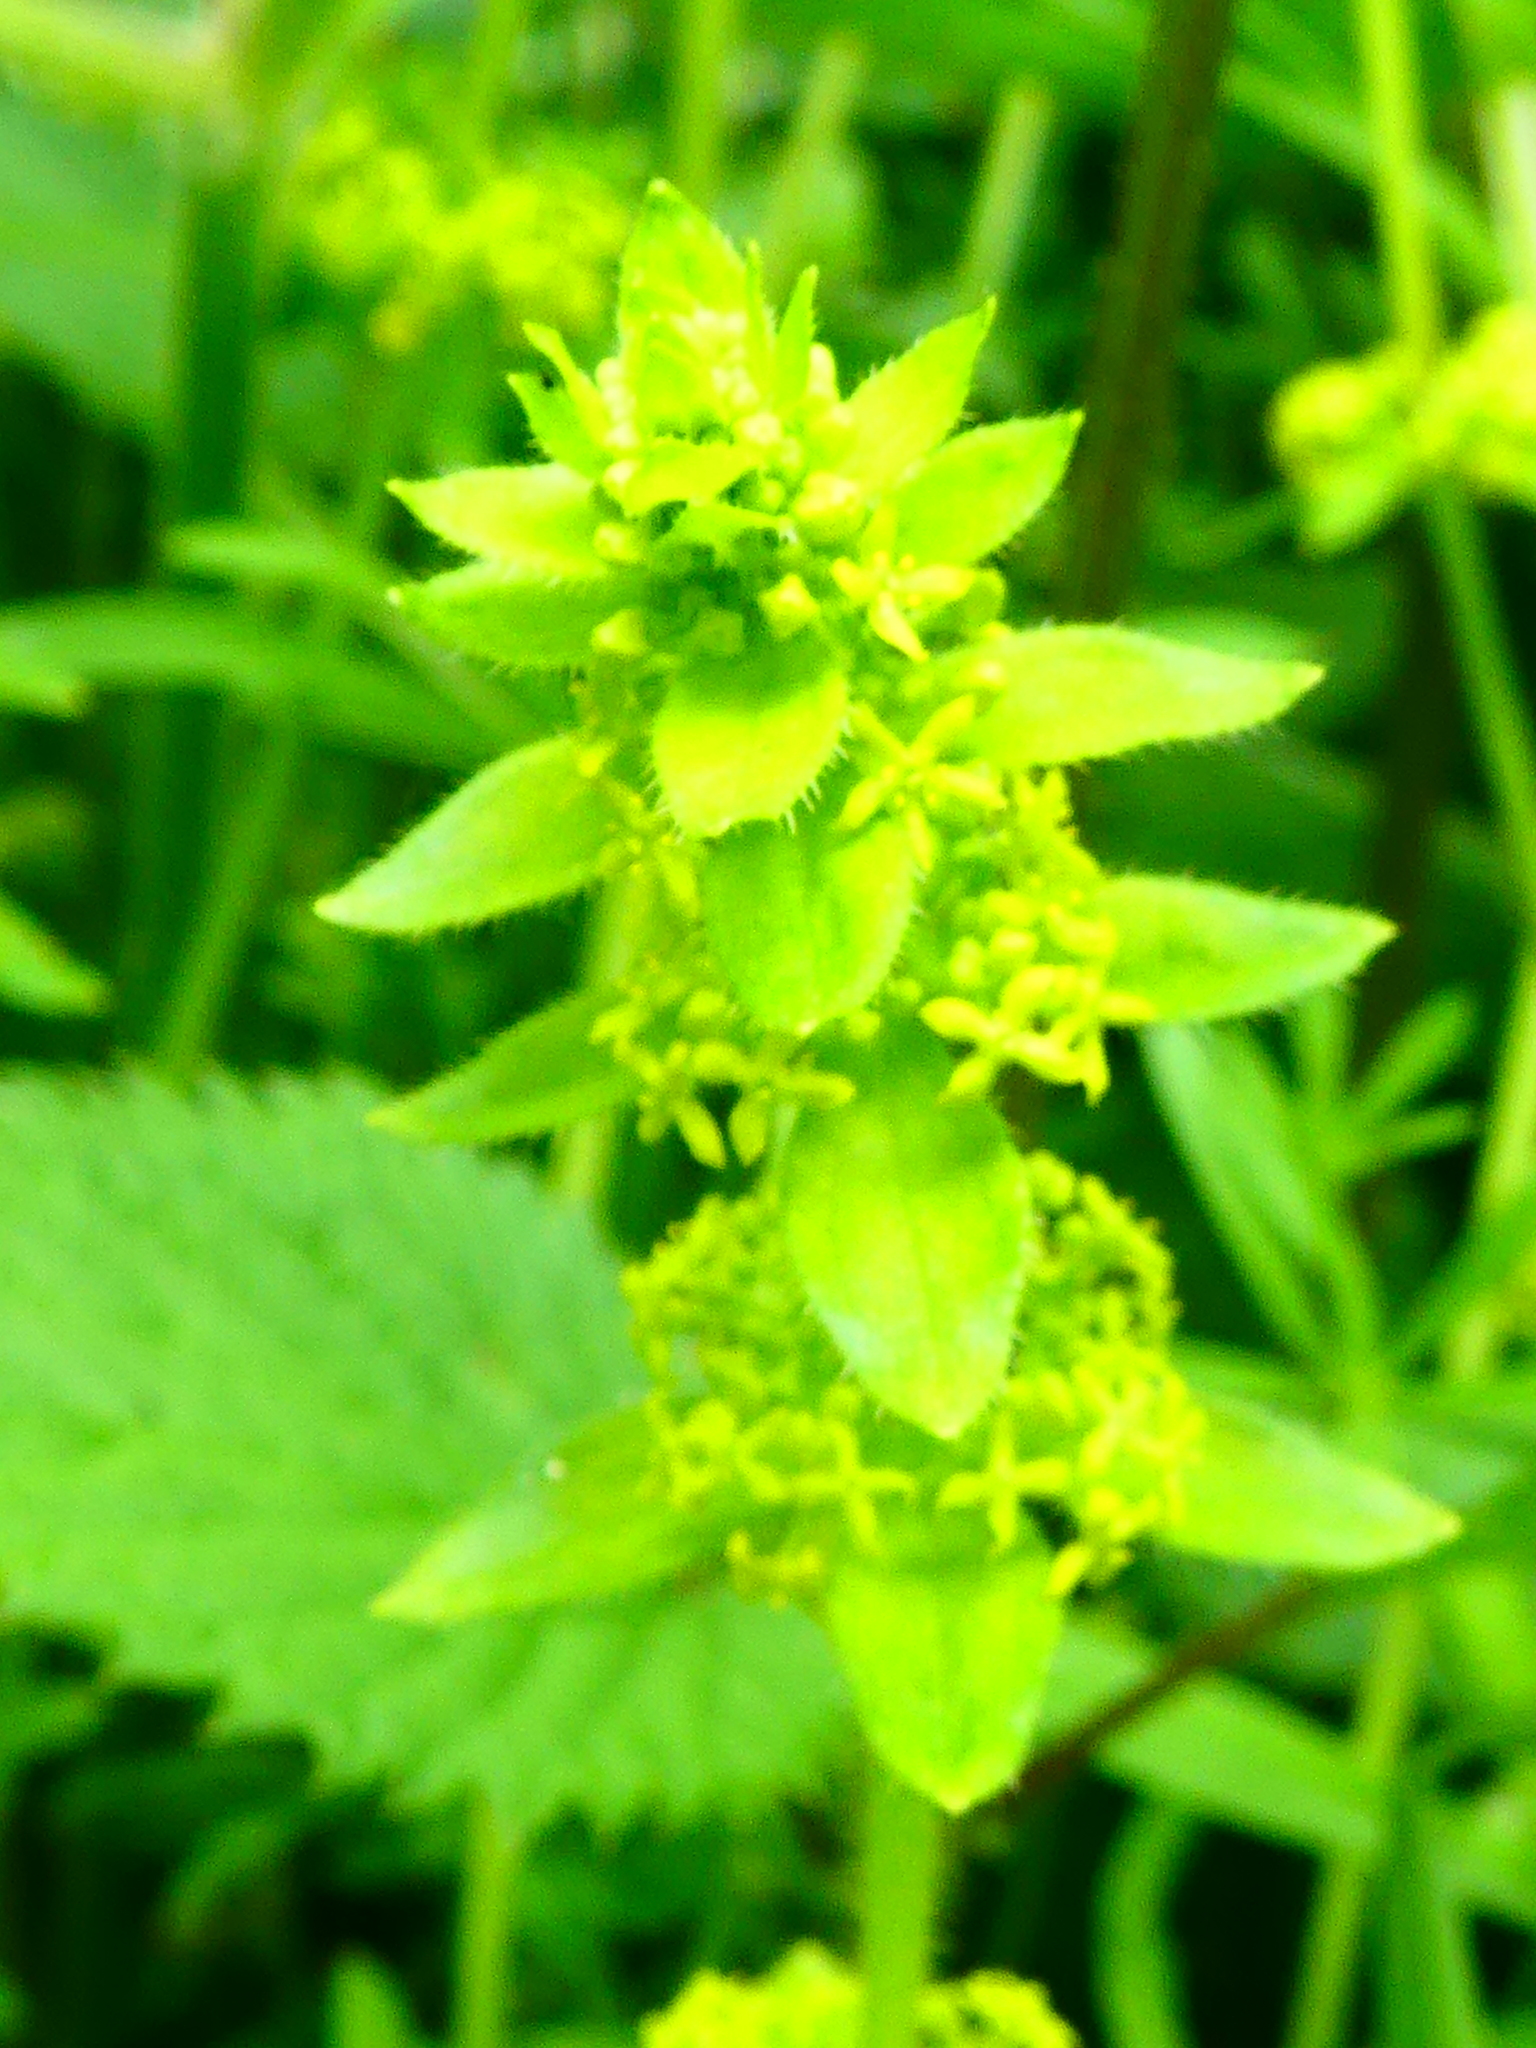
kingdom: Plantae
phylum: Tracheophyta
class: Magnoliopsida
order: Gentianales
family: Rubiaceae
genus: Cruciata
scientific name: Cruciata laevipes
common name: Crosswort
